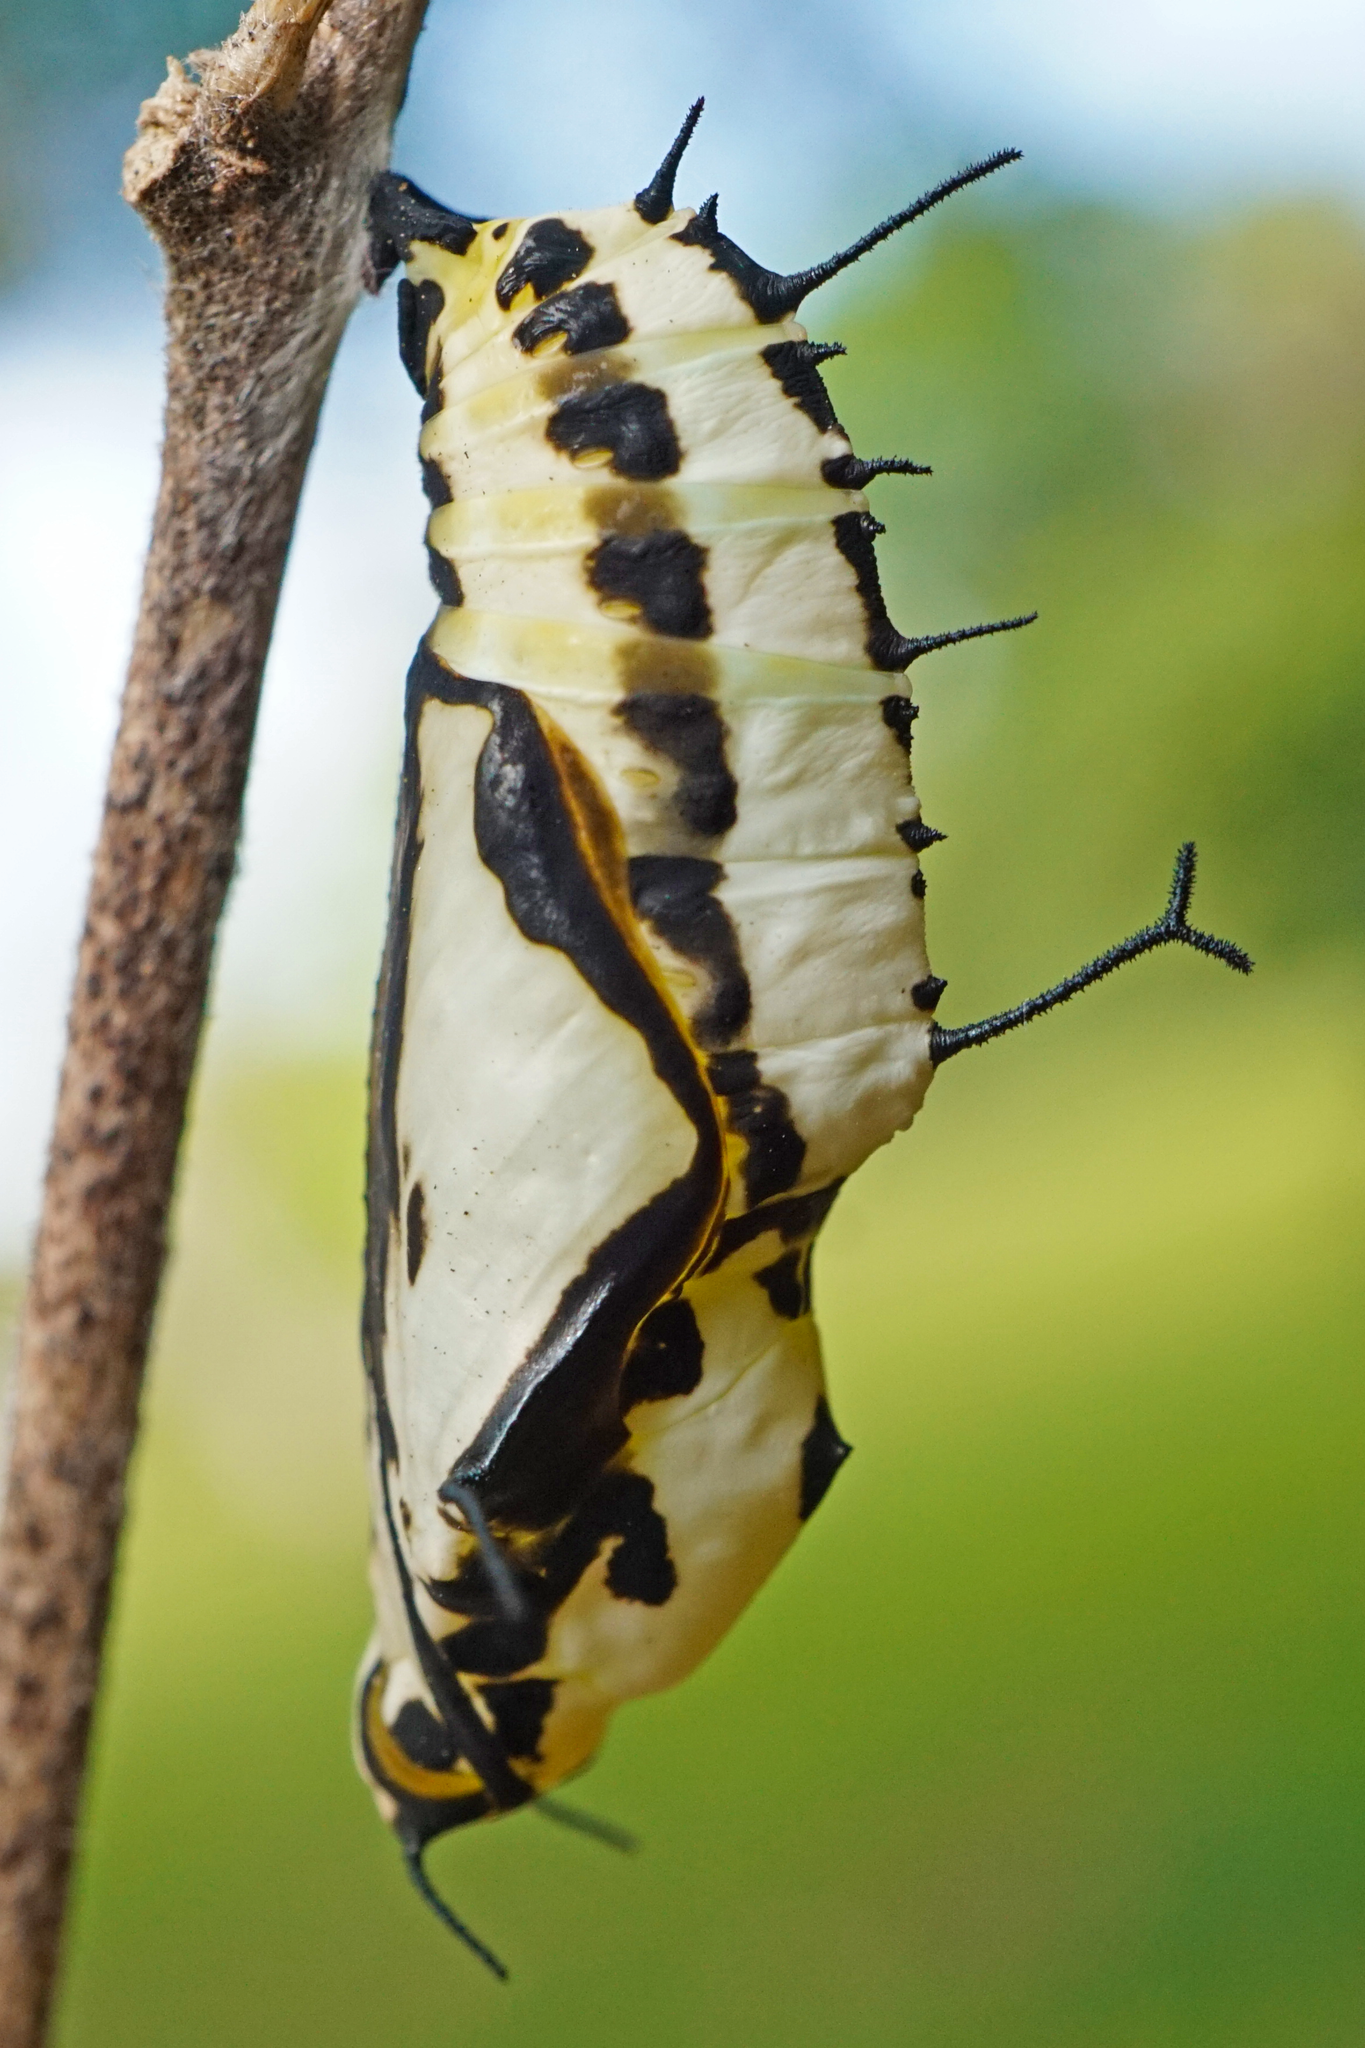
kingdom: Animalia
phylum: Arthropoda
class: Insecta
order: Lepidoptera
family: Nymphalidae
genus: Marpesia
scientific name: Marpesia petreus
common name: Red dagger wing
